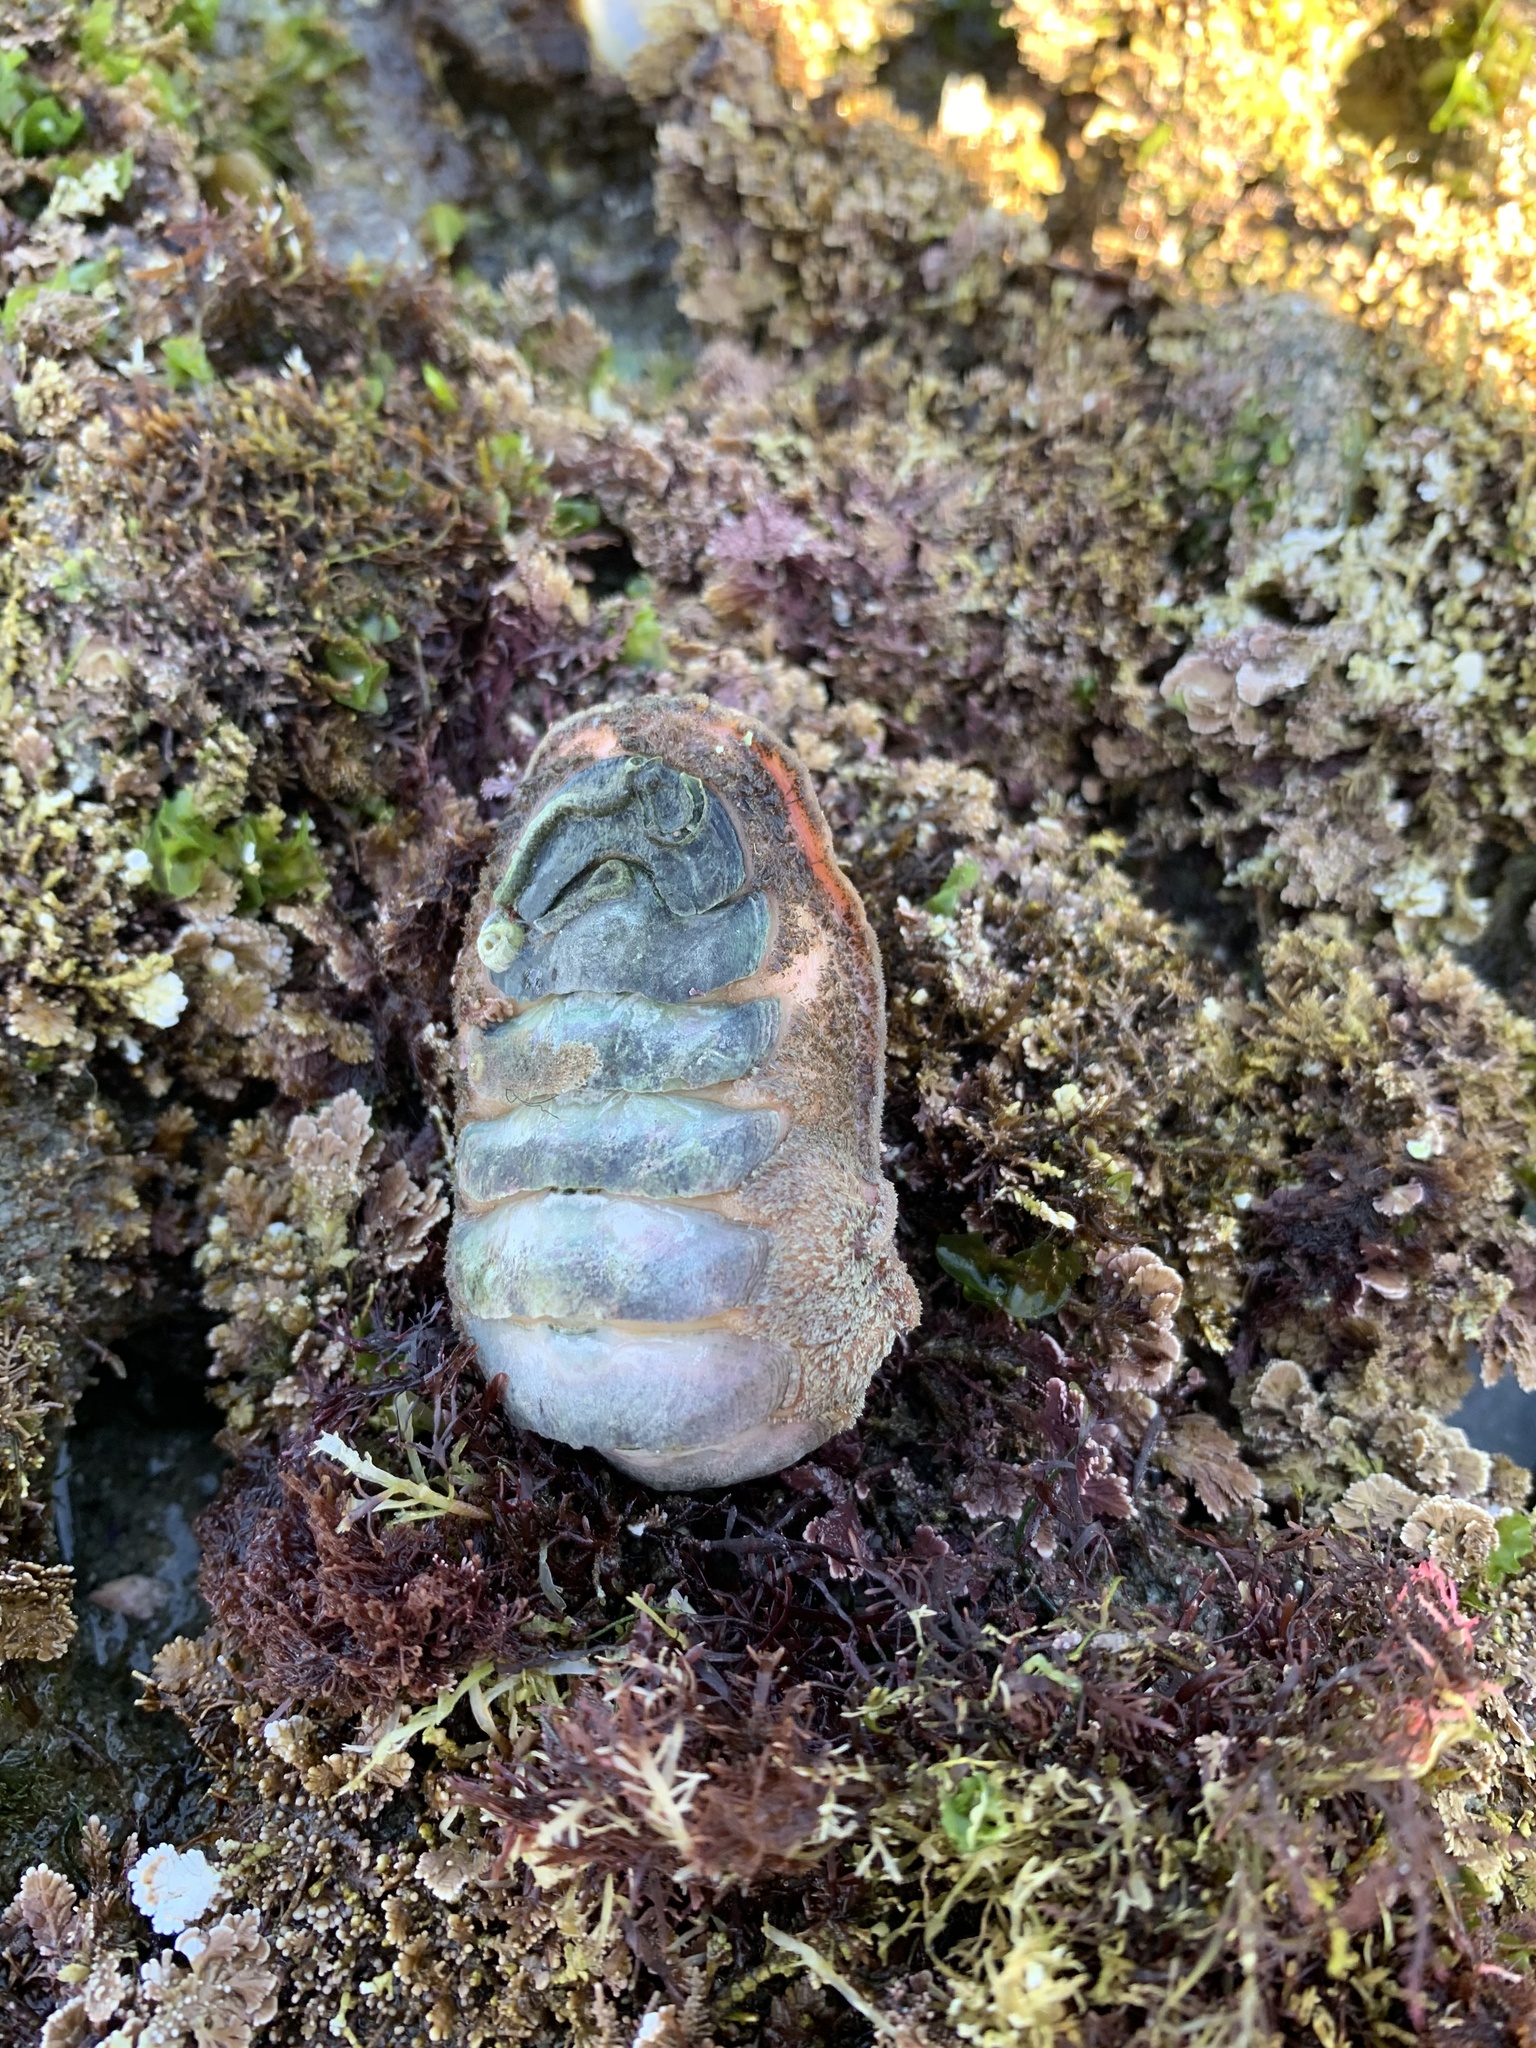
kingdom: Animalia
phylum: Mollusca
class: Polyplacophora
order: Chitonida
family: Ischnochitonidae
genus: Stenoplax
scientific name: Stenoplax conspicua
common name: Conspicuous chiton
